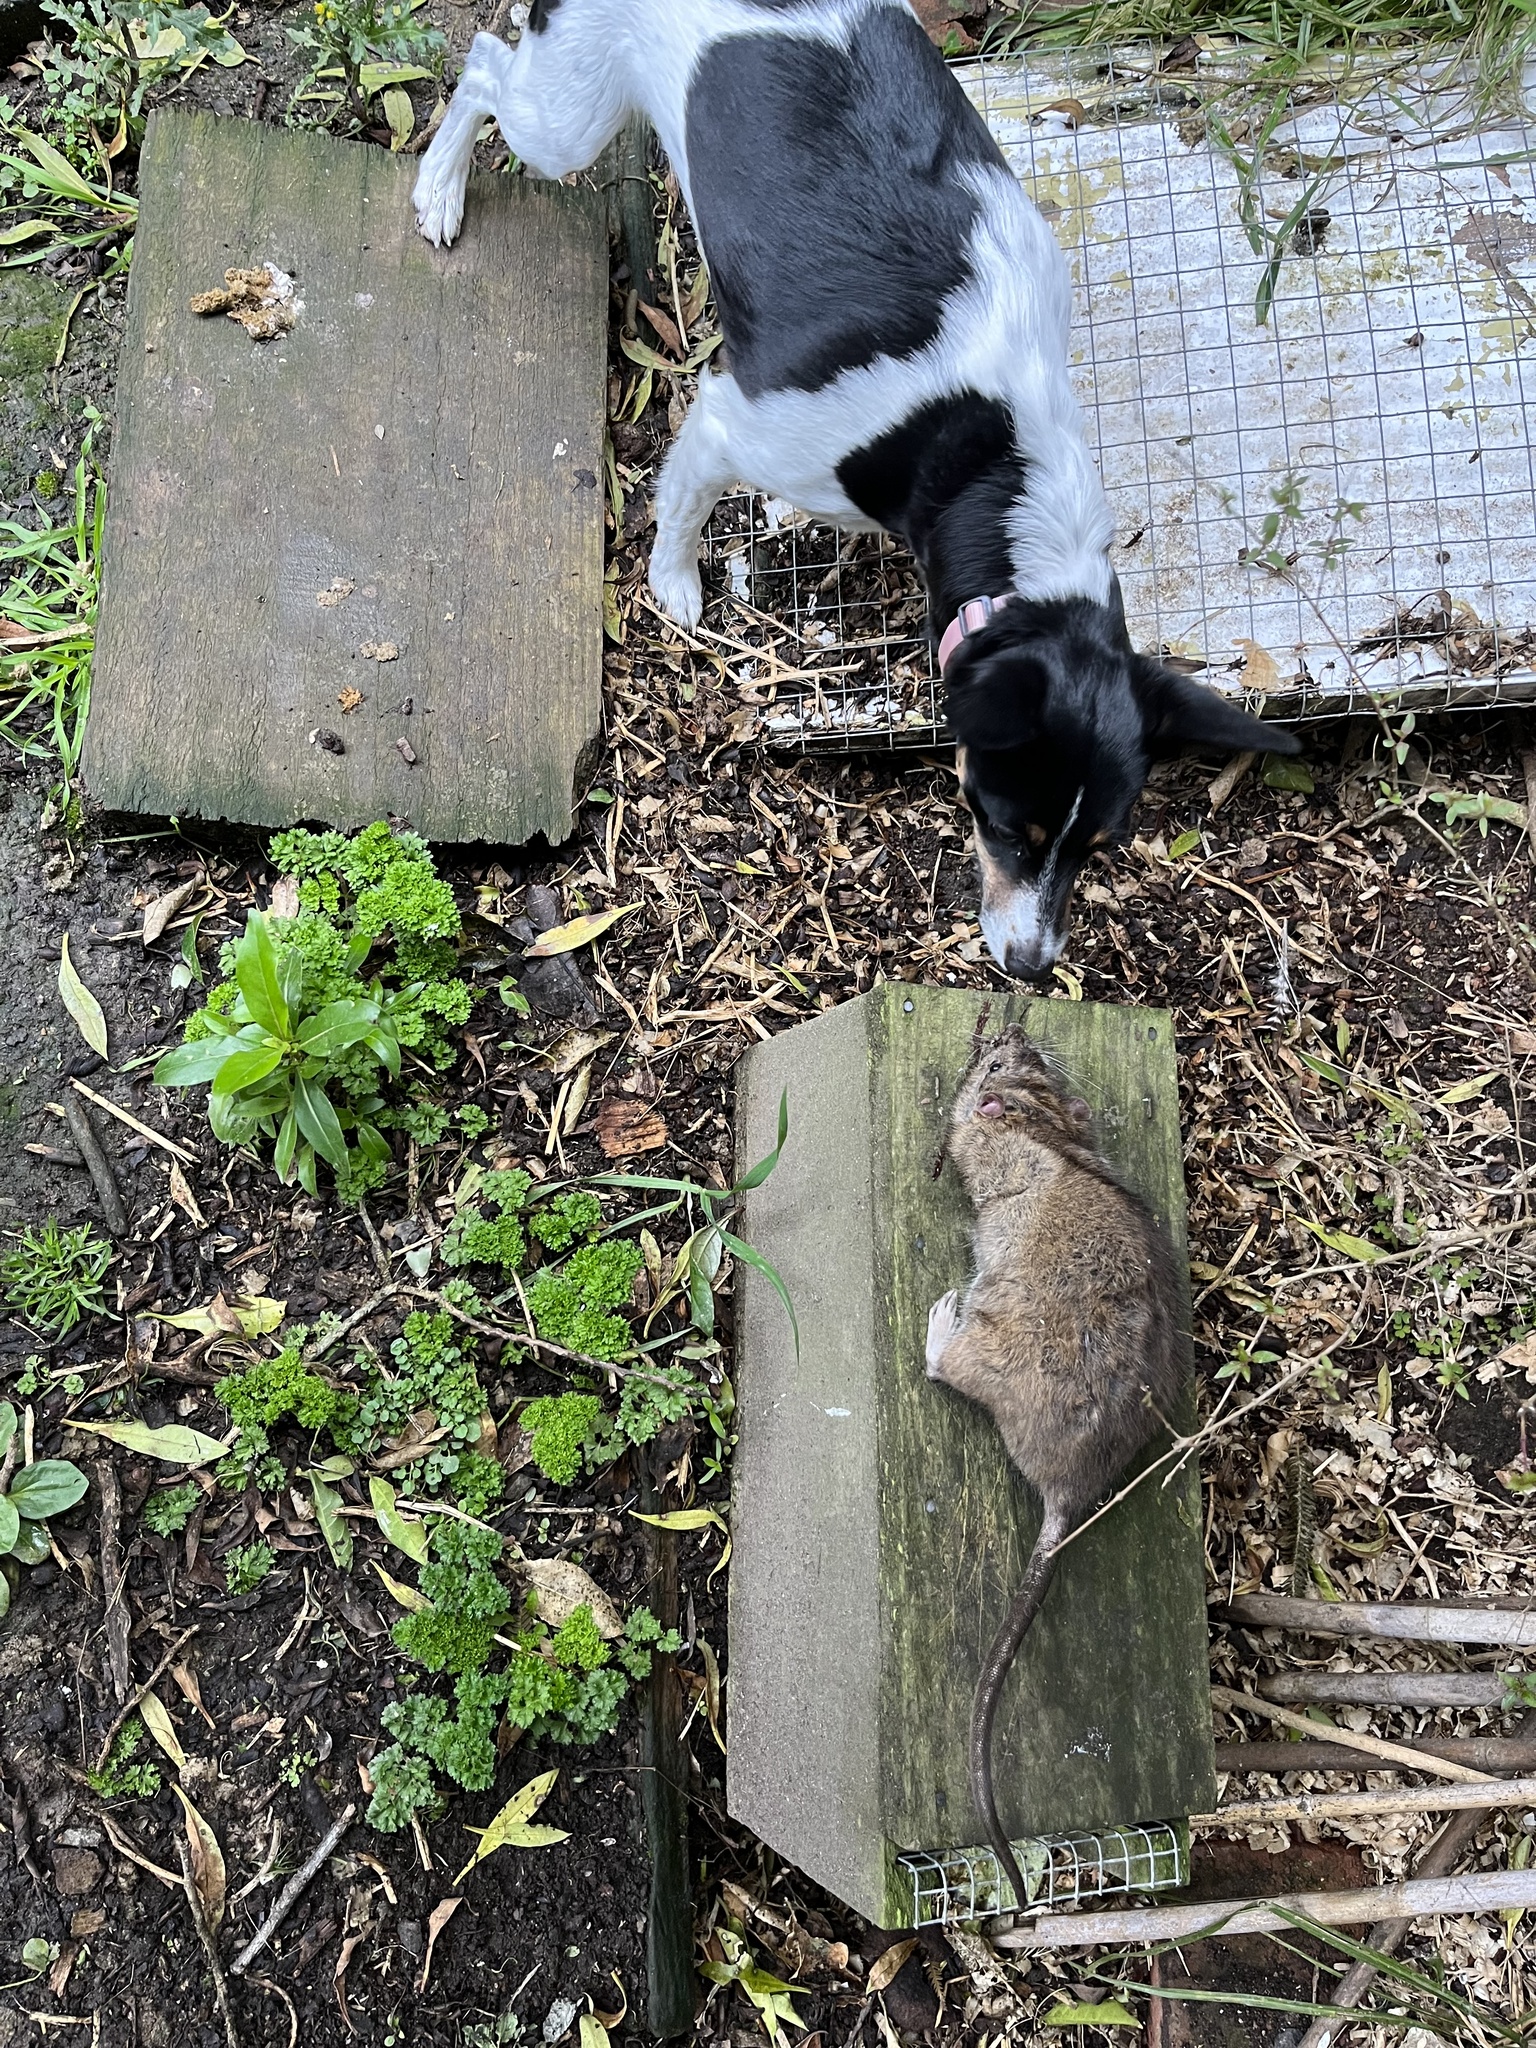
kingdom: Animalia
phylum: Chordata
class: Mammalia
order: Rodentia
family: Muridae
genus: Rattus
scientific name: Rattus norvegicus
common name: Brown rat
